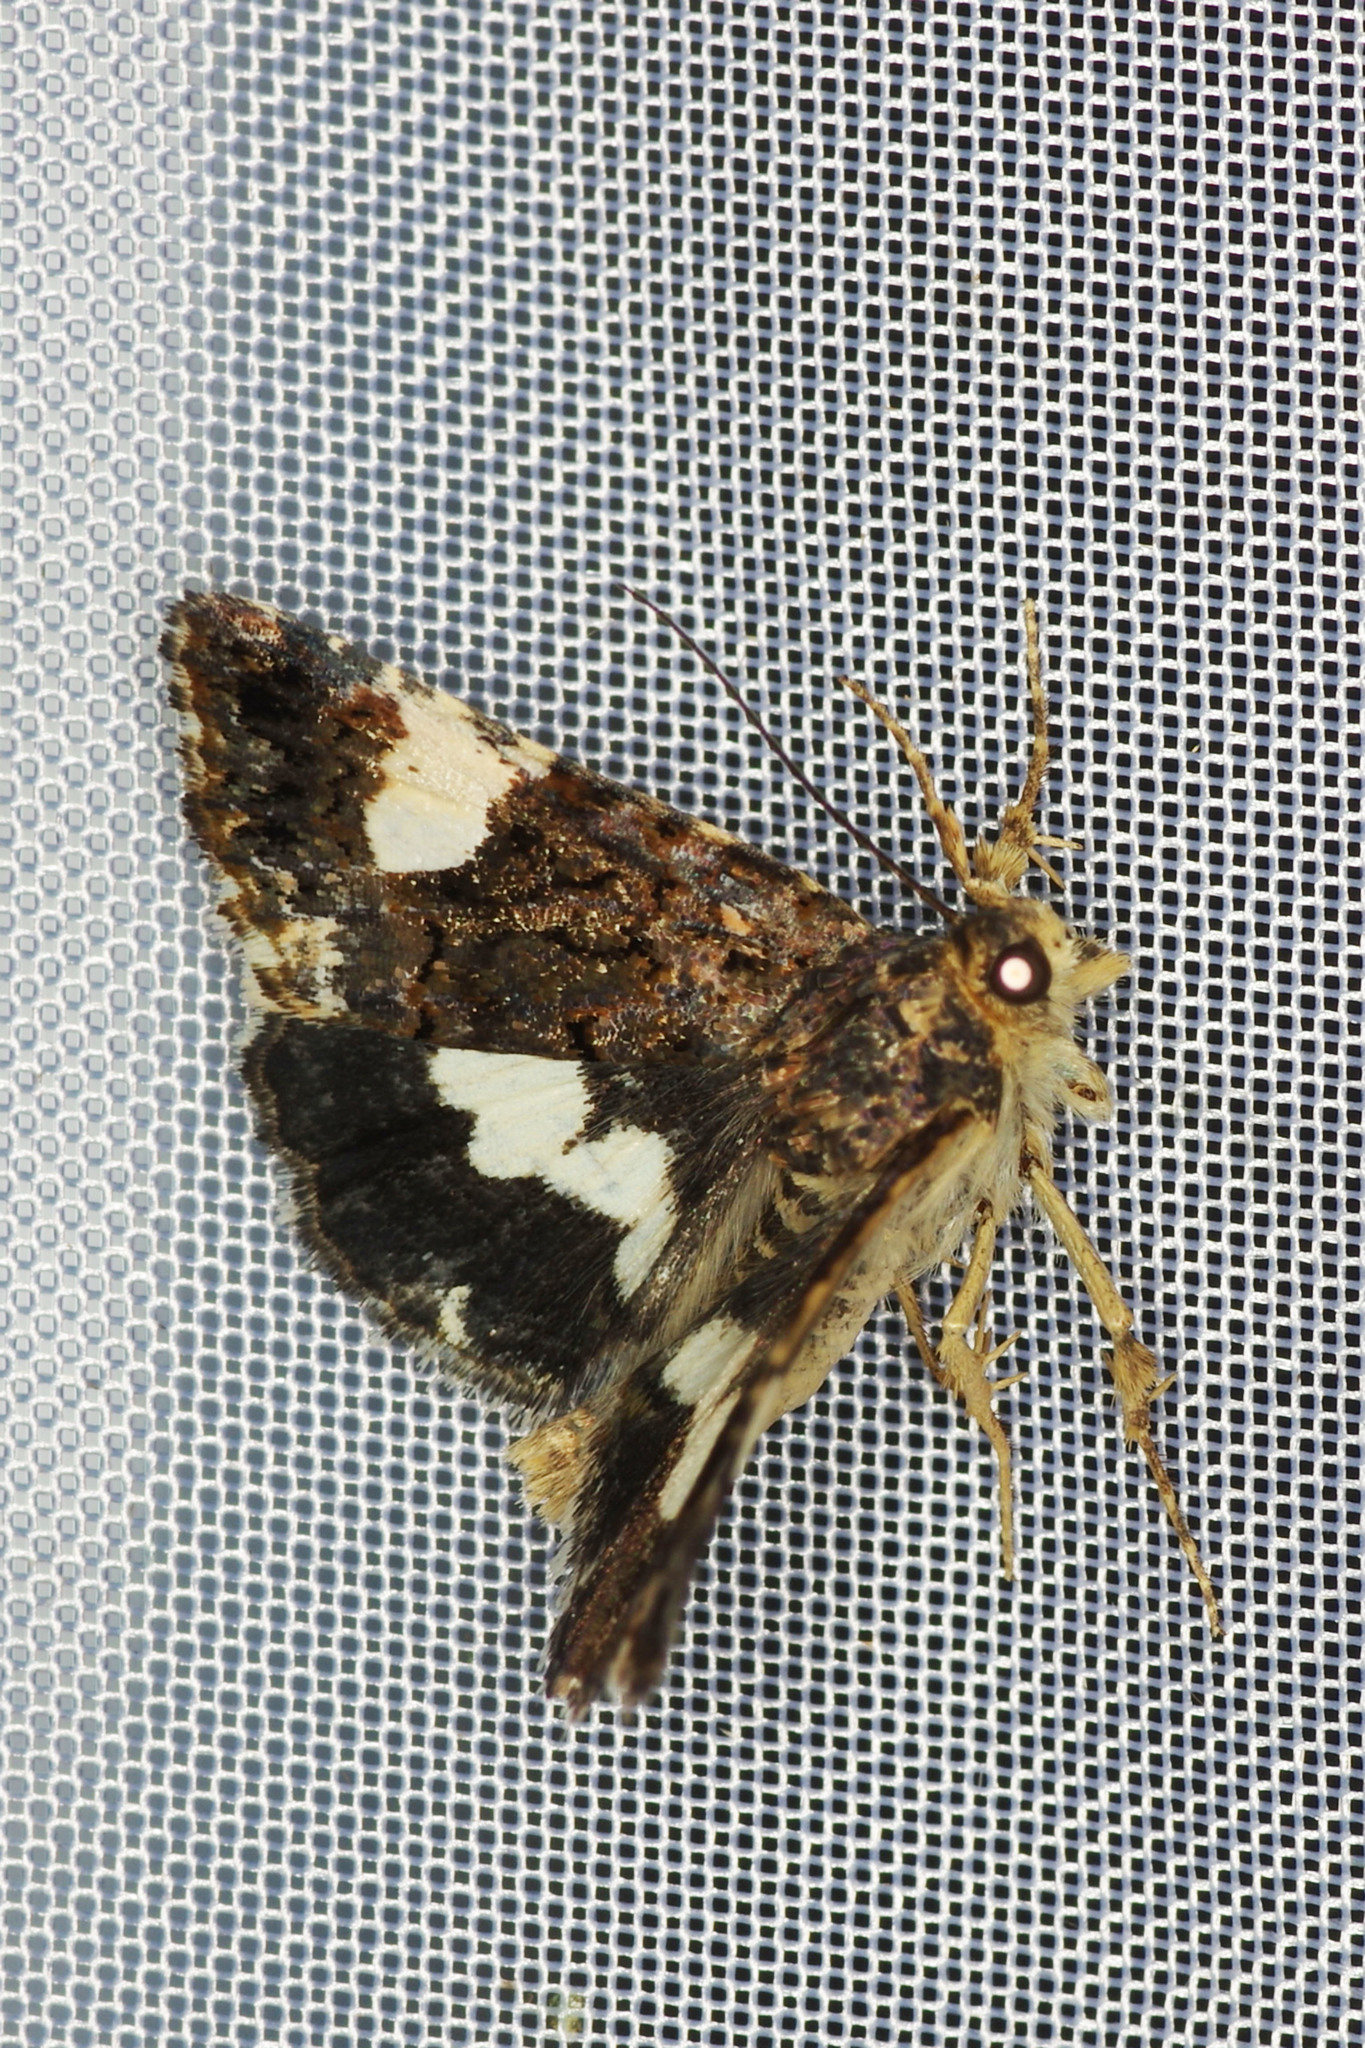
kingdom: Animalia
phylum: Arthropoda
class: Insecta
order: Lepidoptera
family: Erebidae
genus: Tyta
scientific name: Tyta luctuosa
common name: Four-spotted
